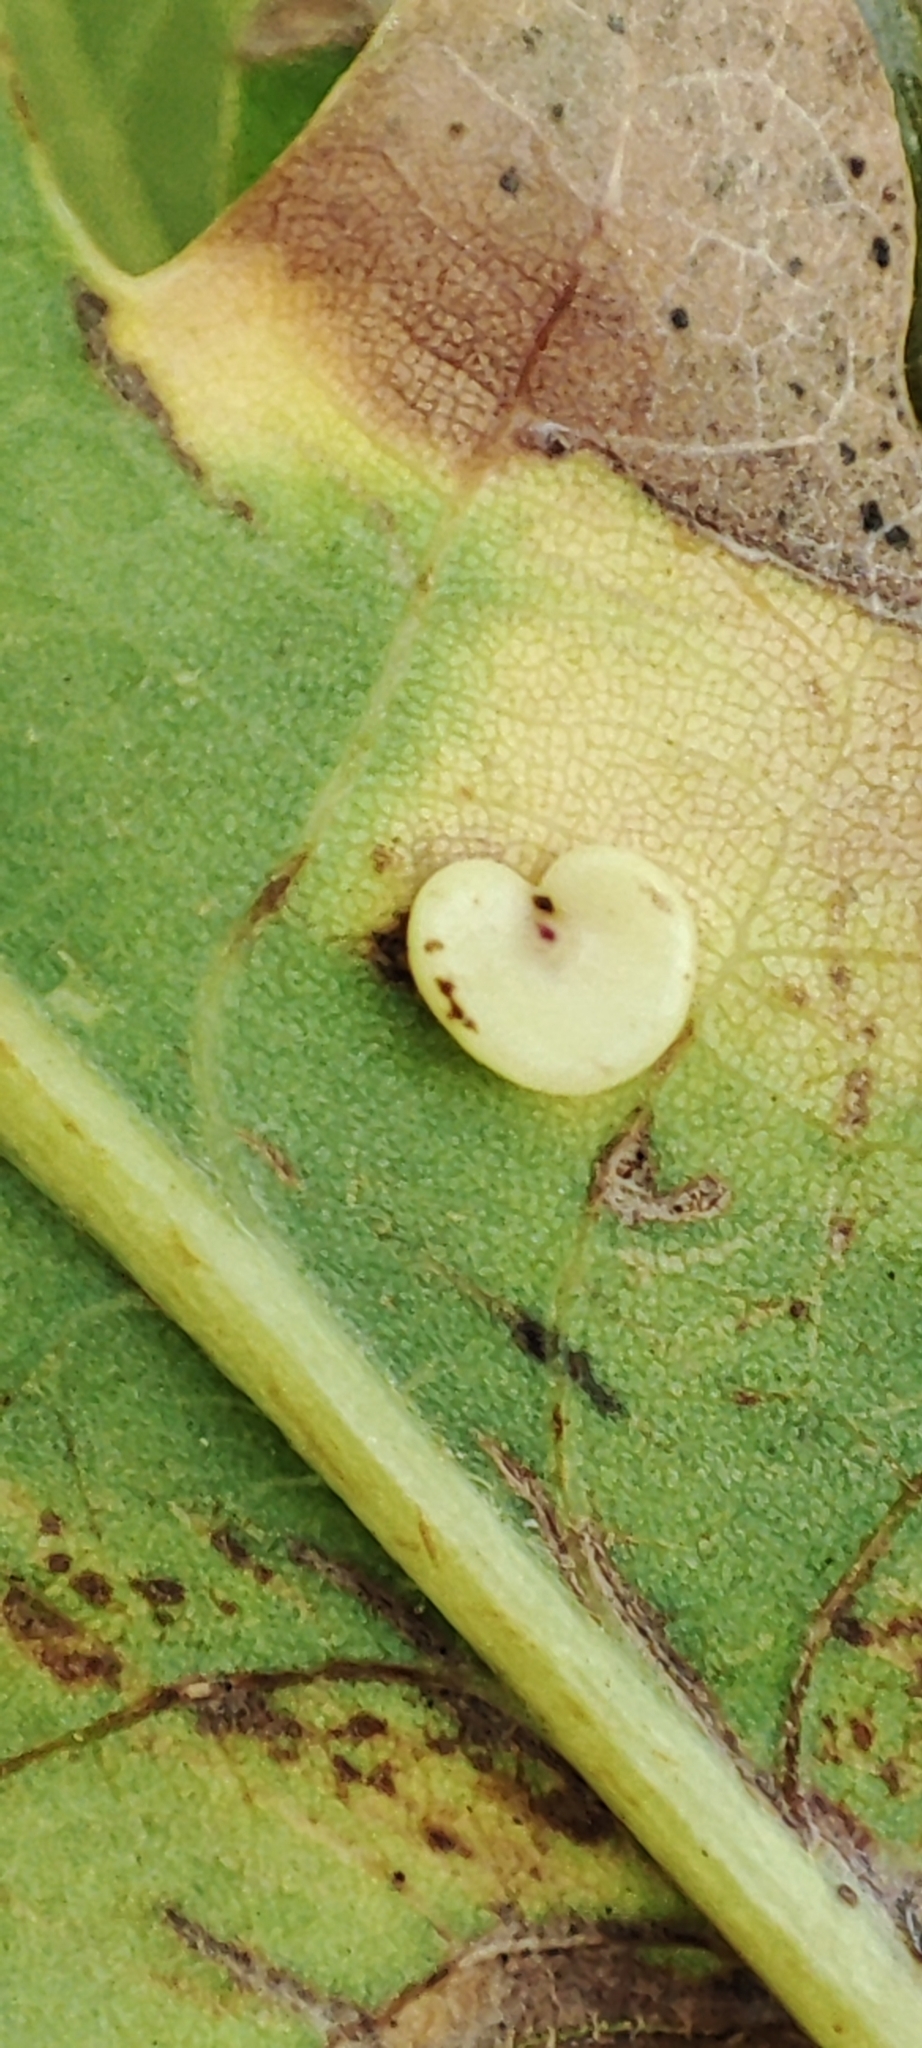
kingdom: Animalia
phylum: Arthropoda
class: Insecta
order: Hymenoptera
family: Cynipidae
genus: Neuroterus
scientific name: Neuroterus albipes
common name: Smooth spangle gall
